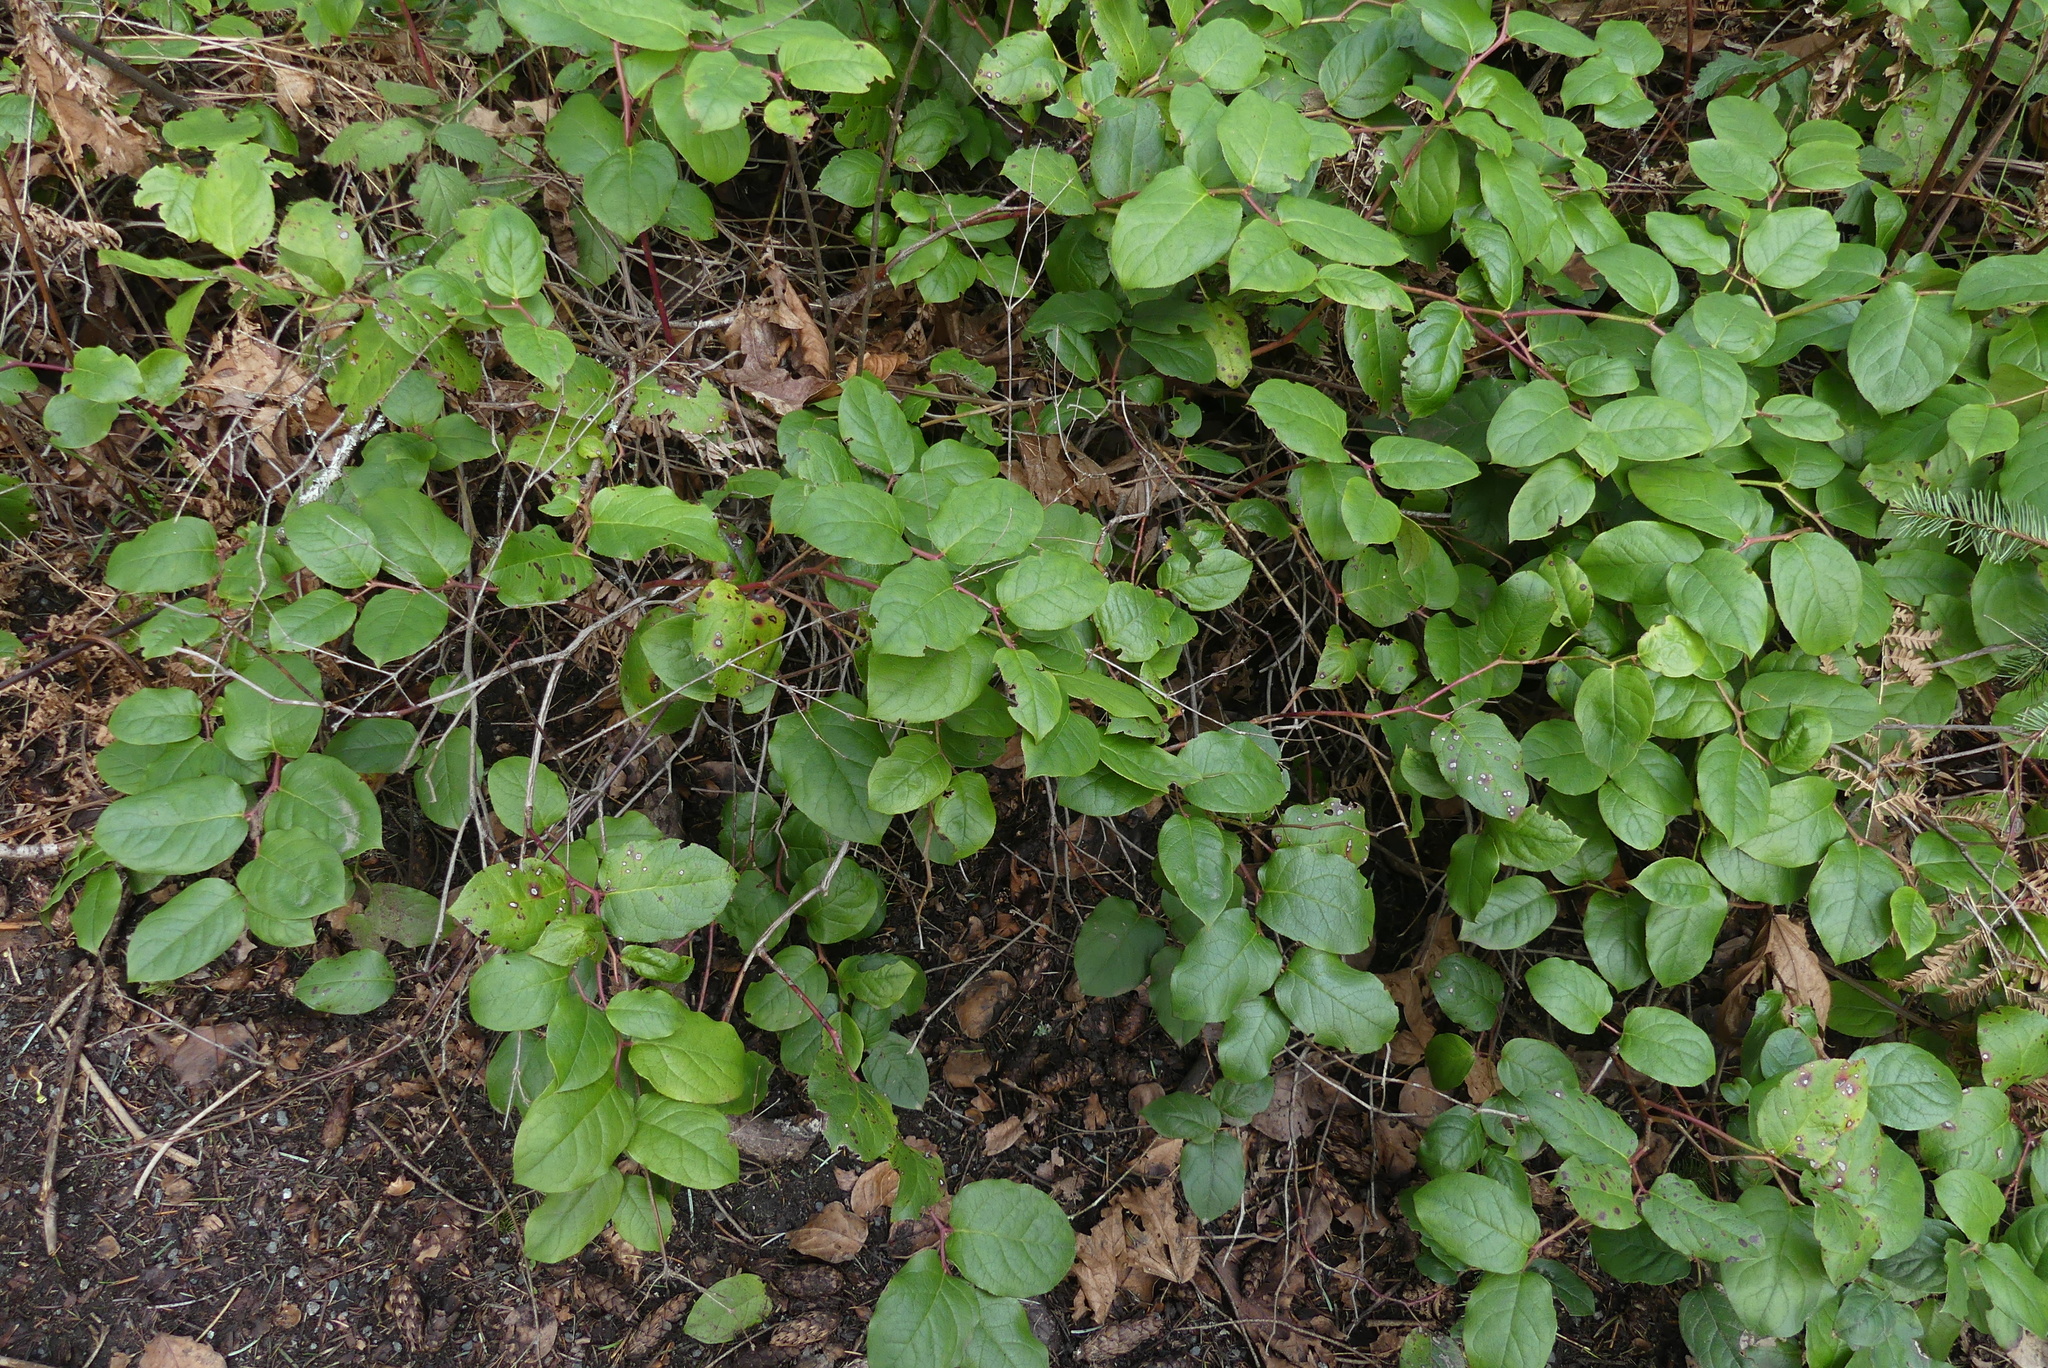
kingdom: Plantae
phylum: Tracheophyta
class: Magnoliopsida
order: Ericales
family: Ericaceae
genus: Gaultheria
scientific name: Gaultheria shallon
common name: Shallon
